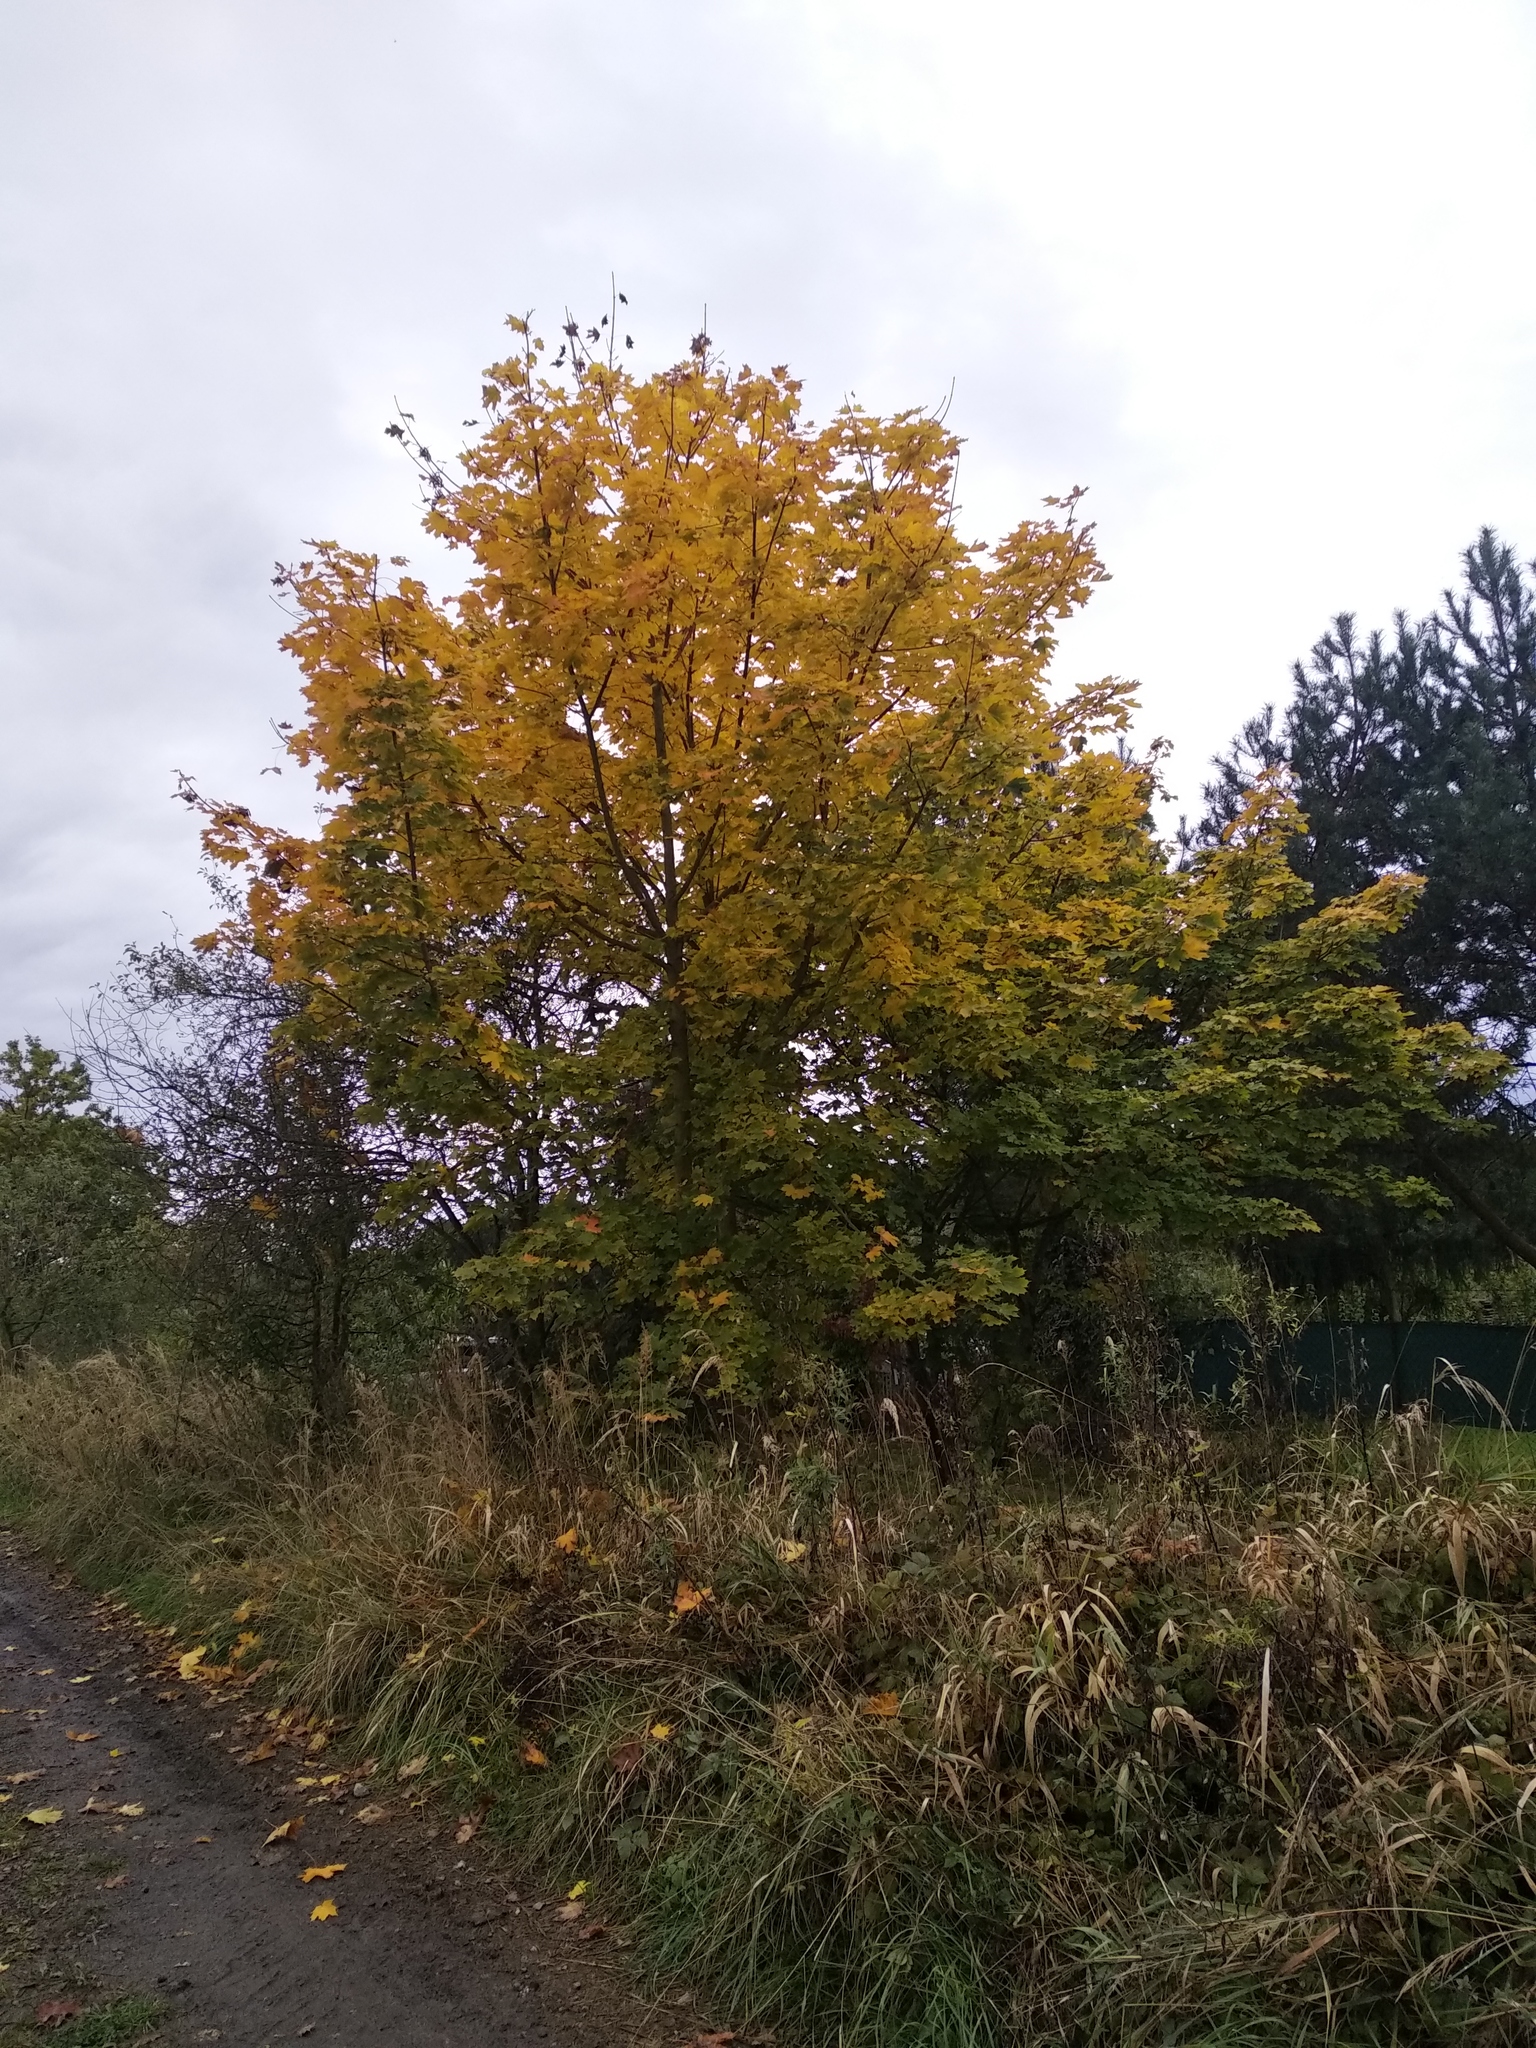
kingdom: Plantae
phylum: Tracheophyta
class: Magnoliopsida
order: Sapindales
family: Sapindaceae
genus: Acer
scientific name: Acer platanoides
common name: Norway maple
